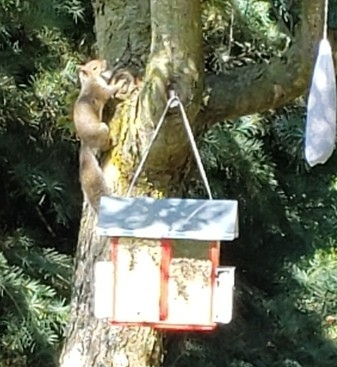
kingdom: Animalia
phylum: Chordata
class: Mammalia
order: Rodentia
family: Sciuridae
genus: Sciurus
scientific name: Sciurus carolinensis
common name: Eastern gray squirrel
